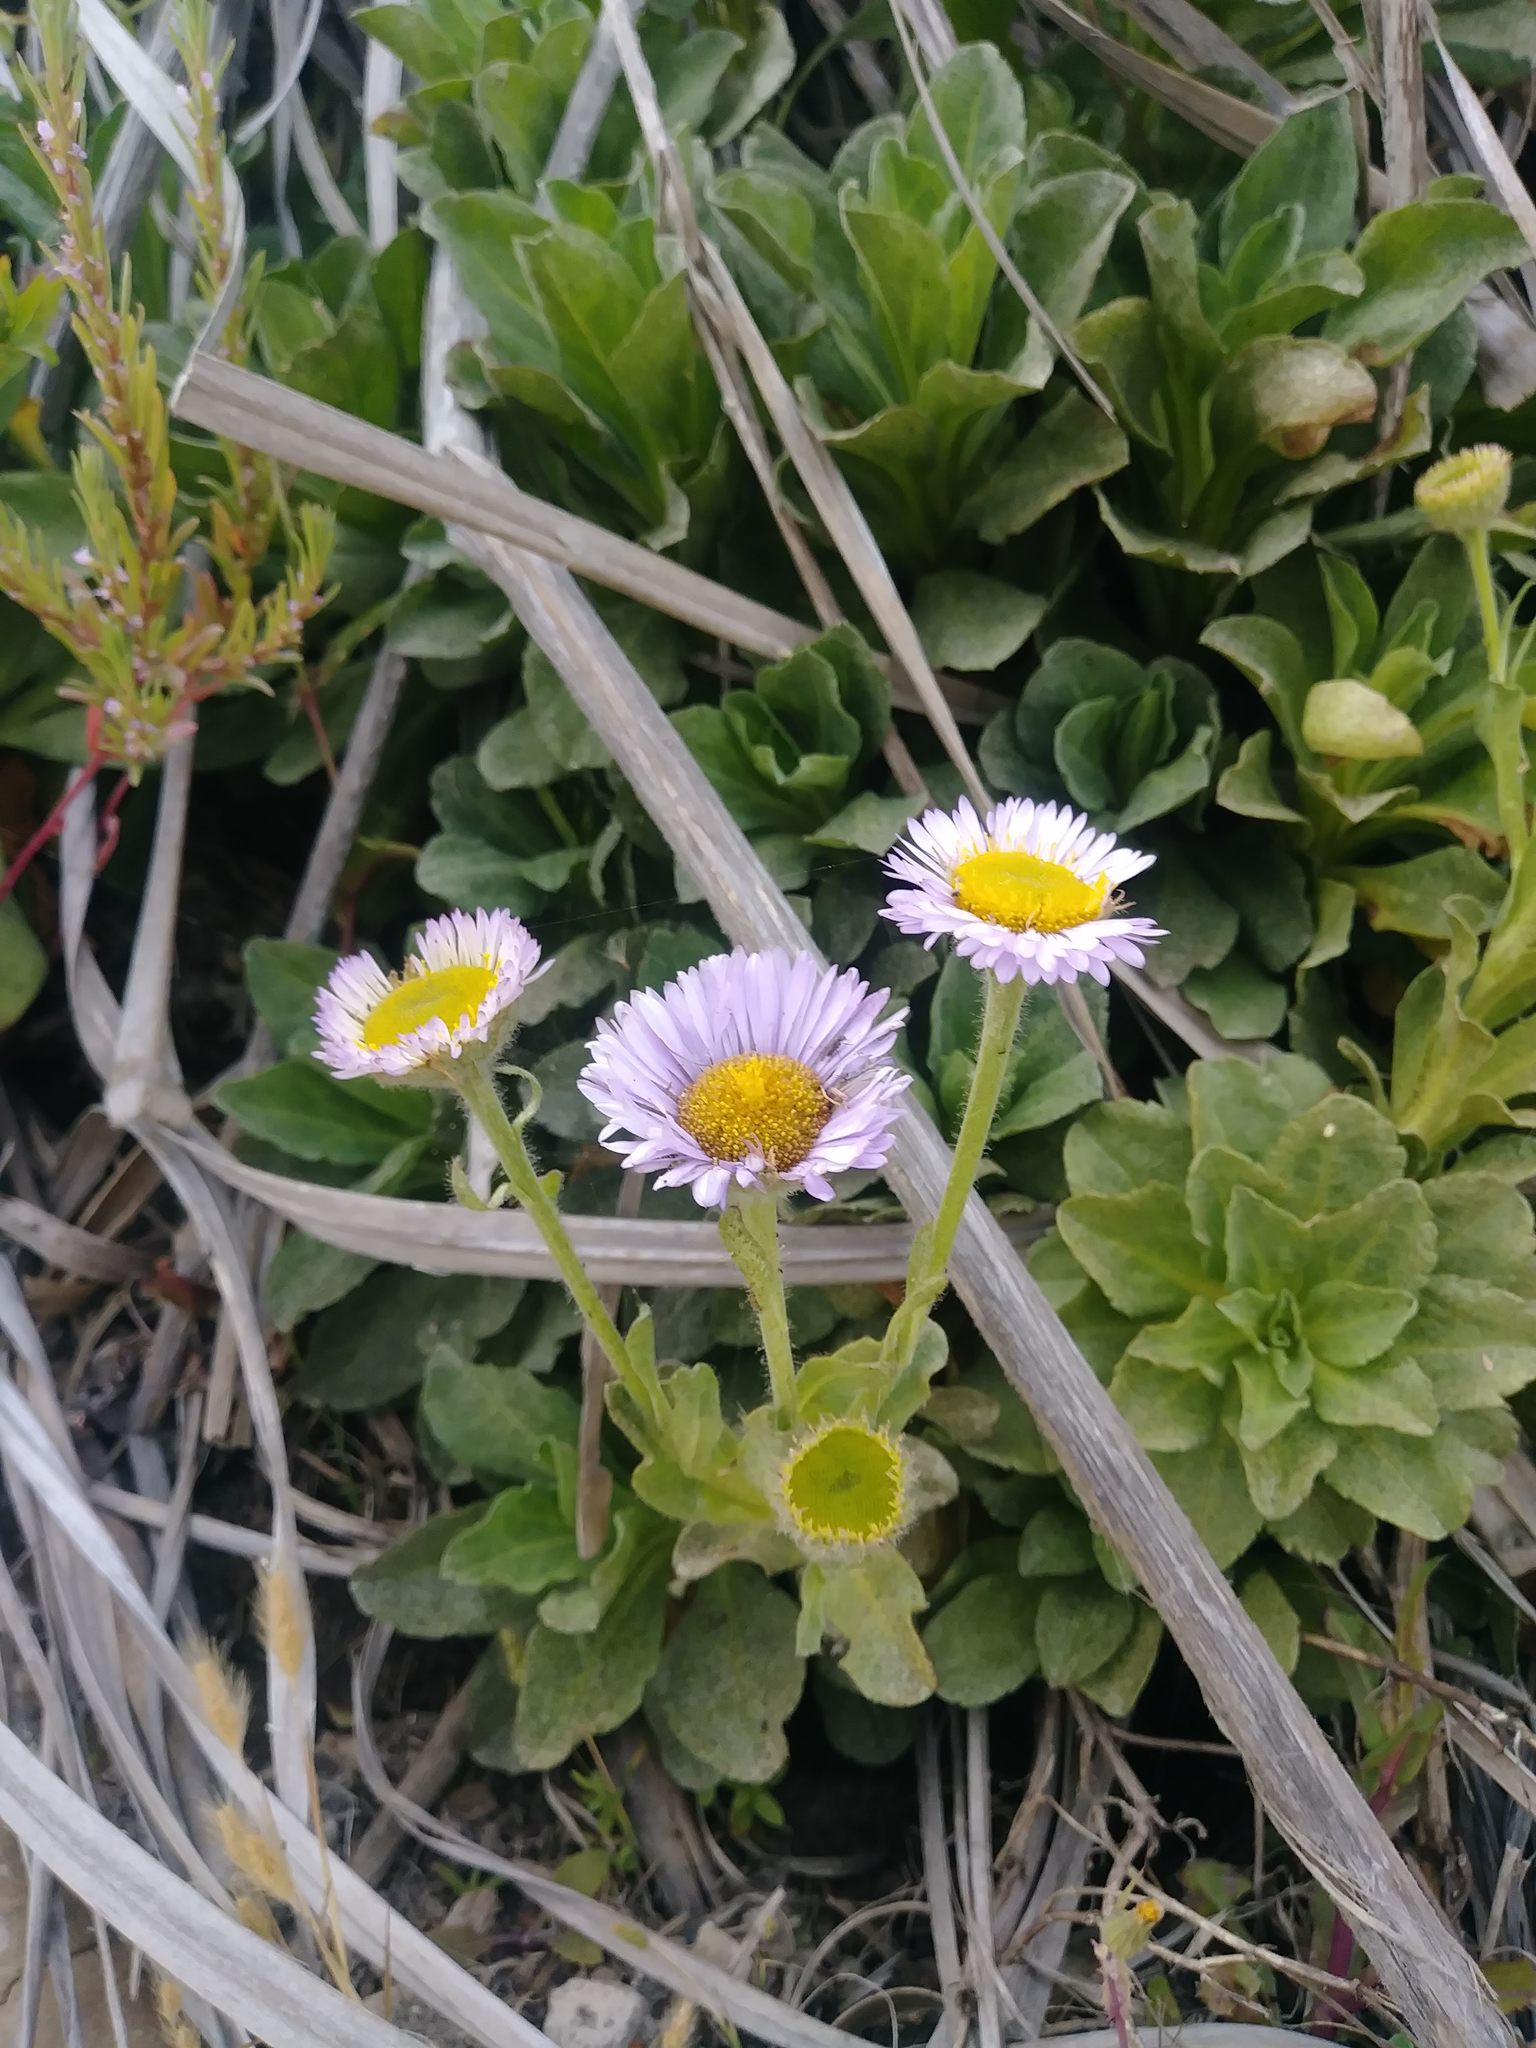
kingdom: Plantae
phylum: Tracheophyta
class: Magnoliopsida
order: Asterales
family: Asteraceae
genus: Erigeron
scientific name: Erigeron glaucus
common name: Seaside daisy
